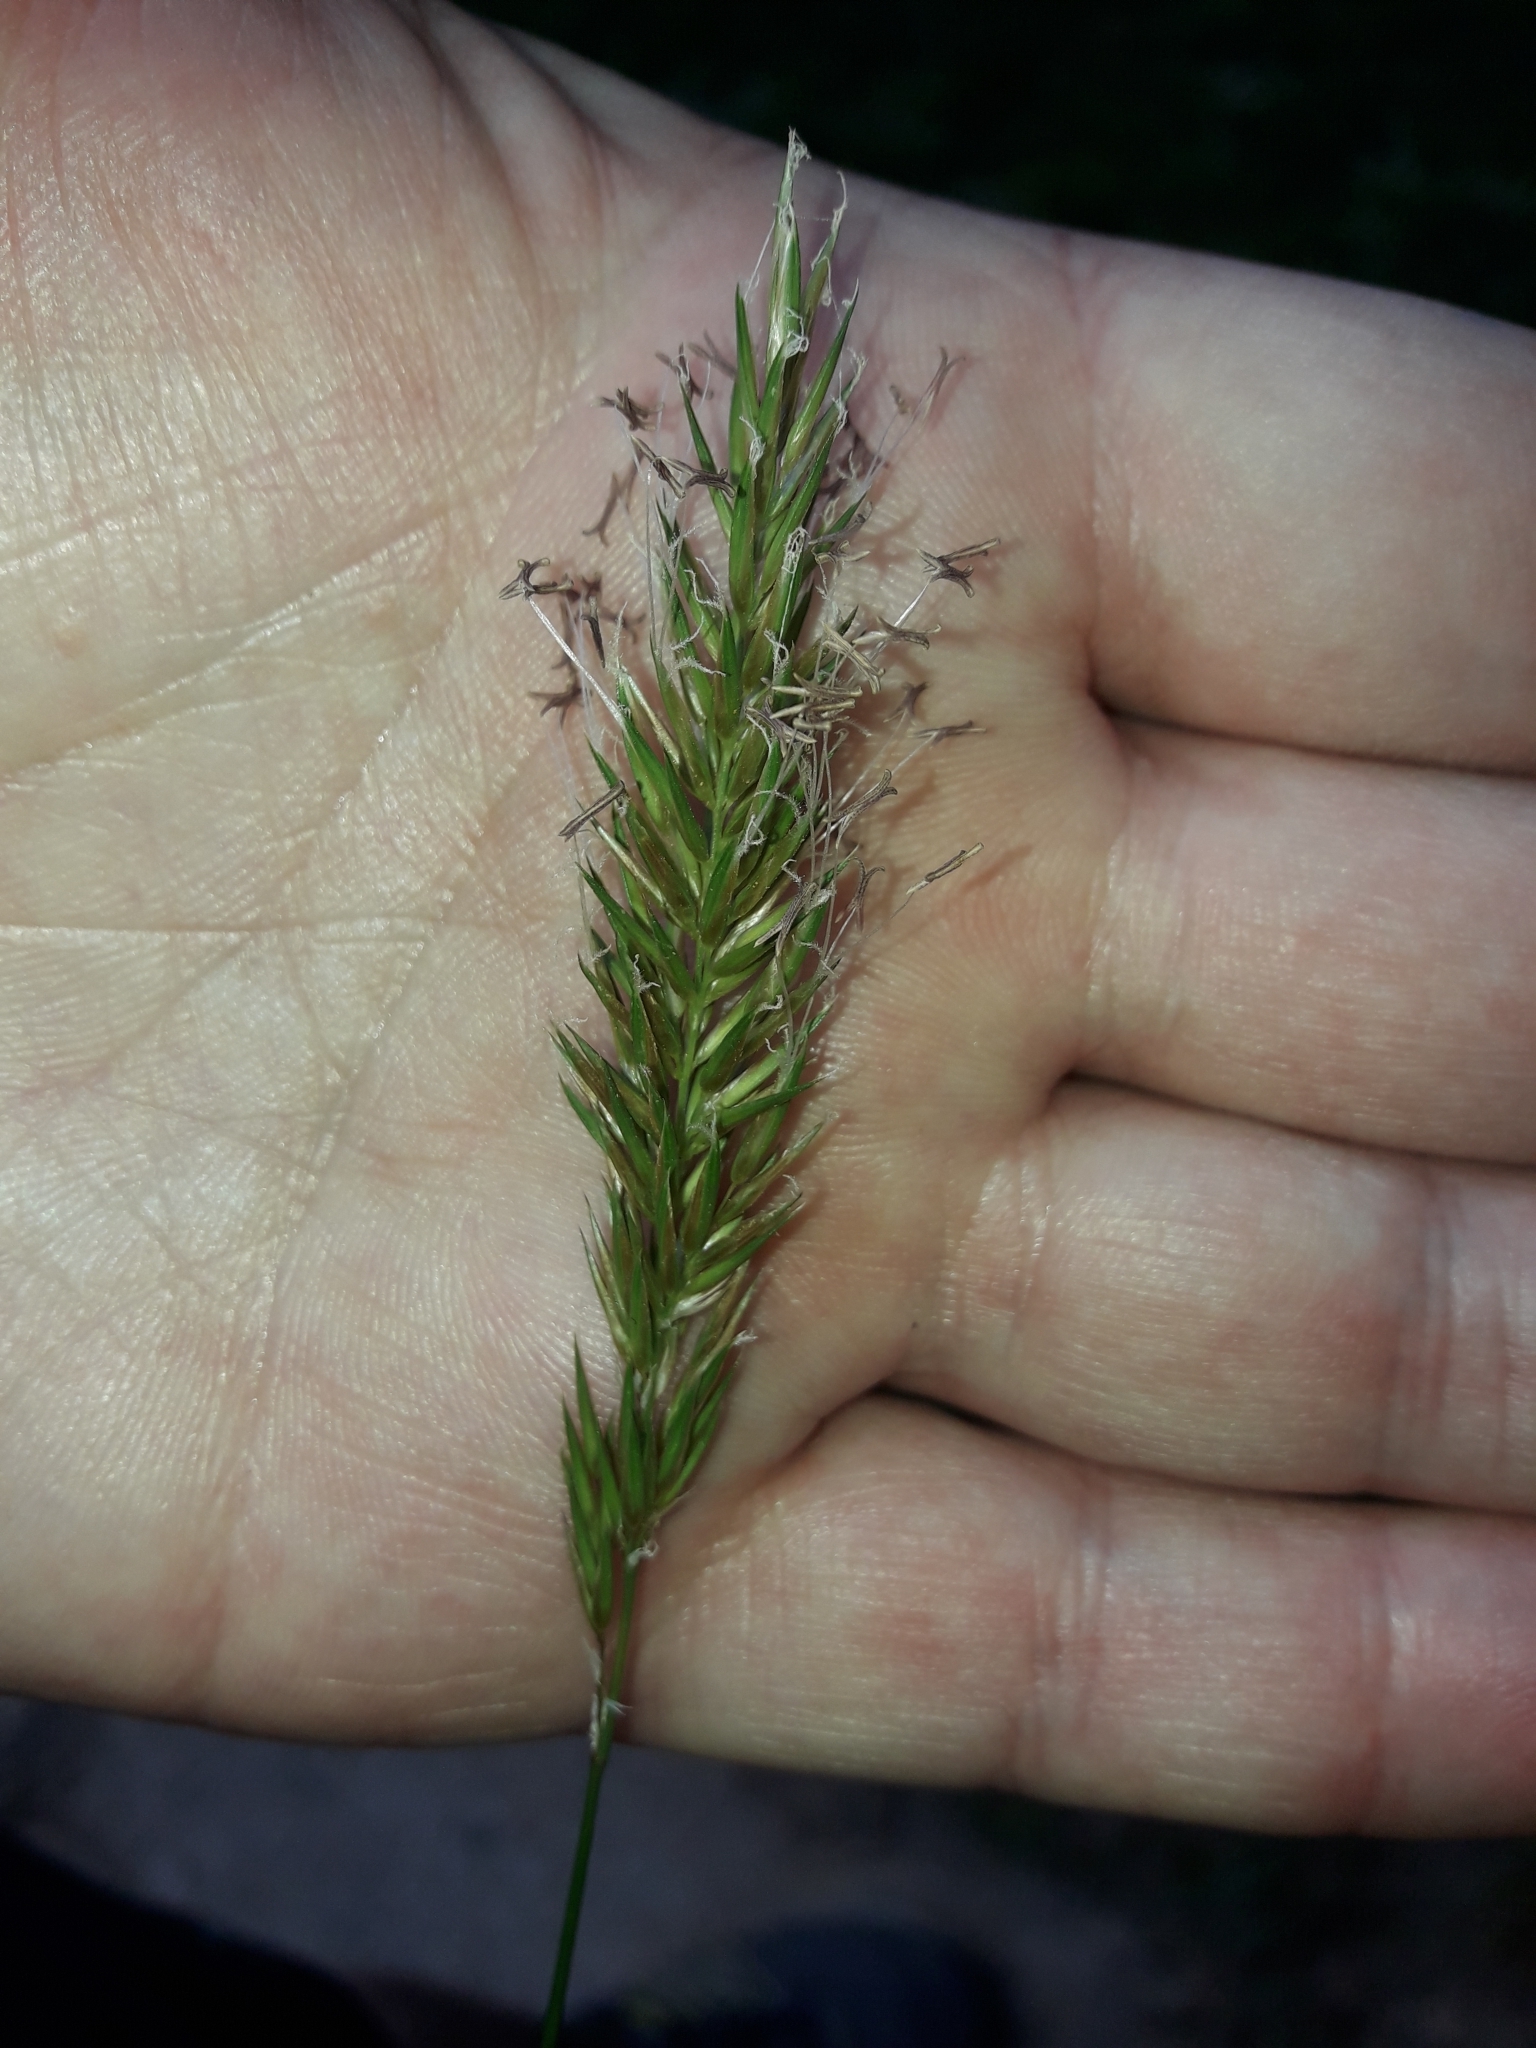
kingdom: Plantae
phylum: Tracheophyta
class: Liliopsida
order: Poales
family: Poaceae
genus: Anthoxanthum
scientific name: Anthoxanthum odoratum
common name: Sweet vernalgrass
